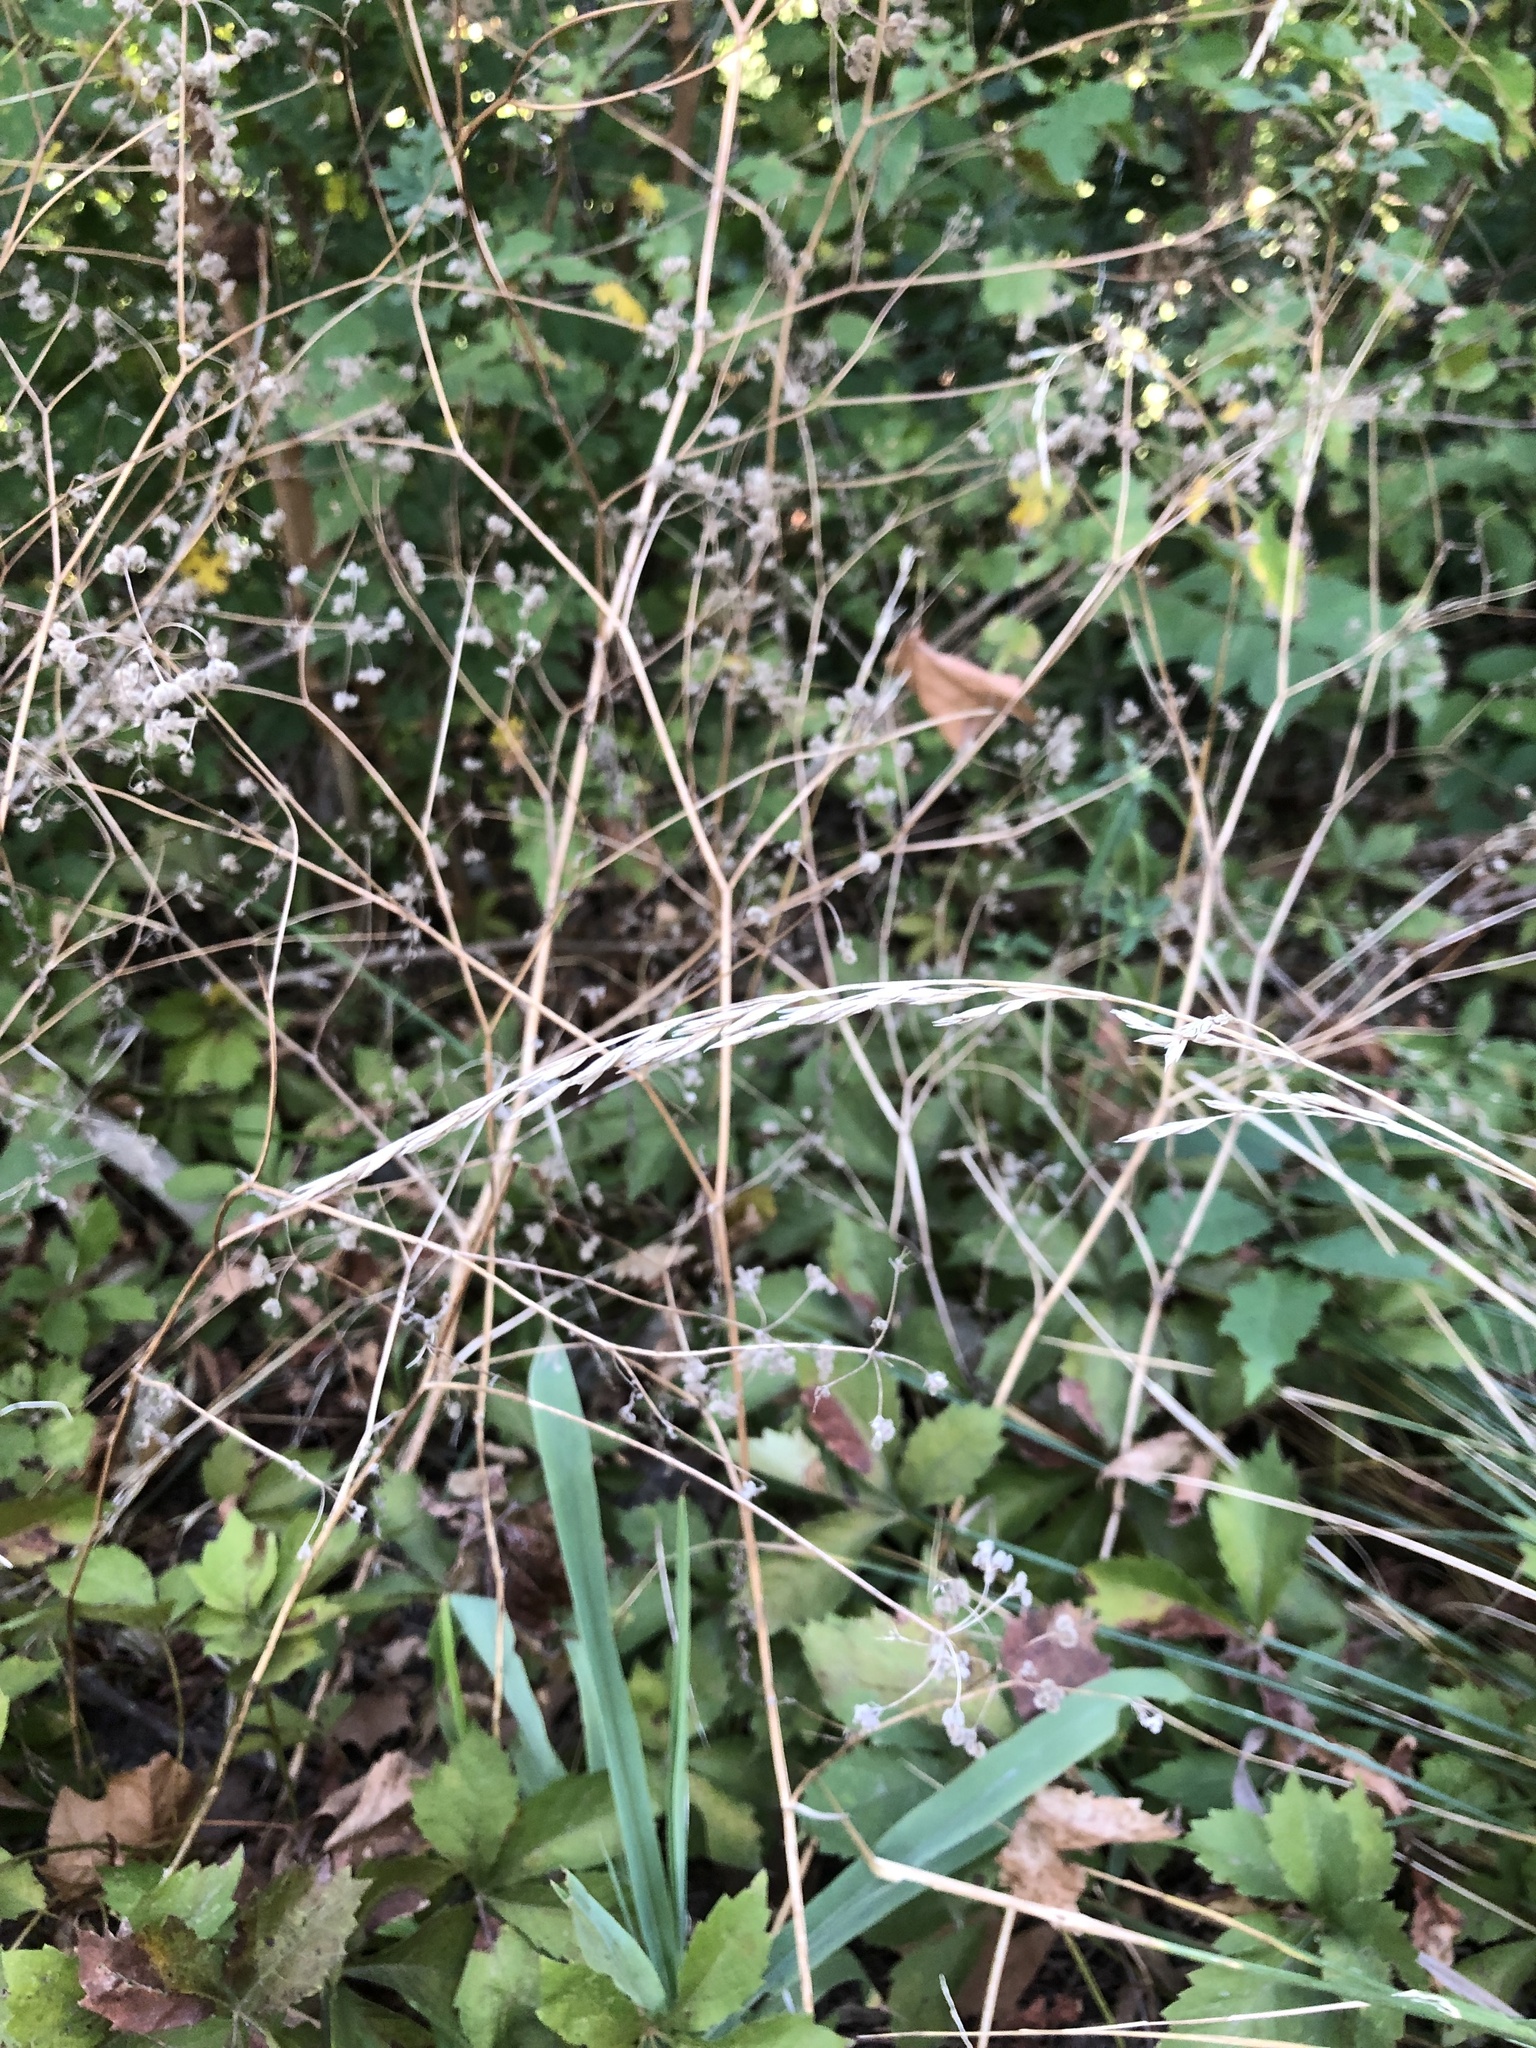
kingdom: Plantae
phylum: Tracheophyta
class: Liliopsida
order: Poales
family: Poaceae
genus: Lolium
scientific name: Lolium arundinaceum
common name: Reed fescue
